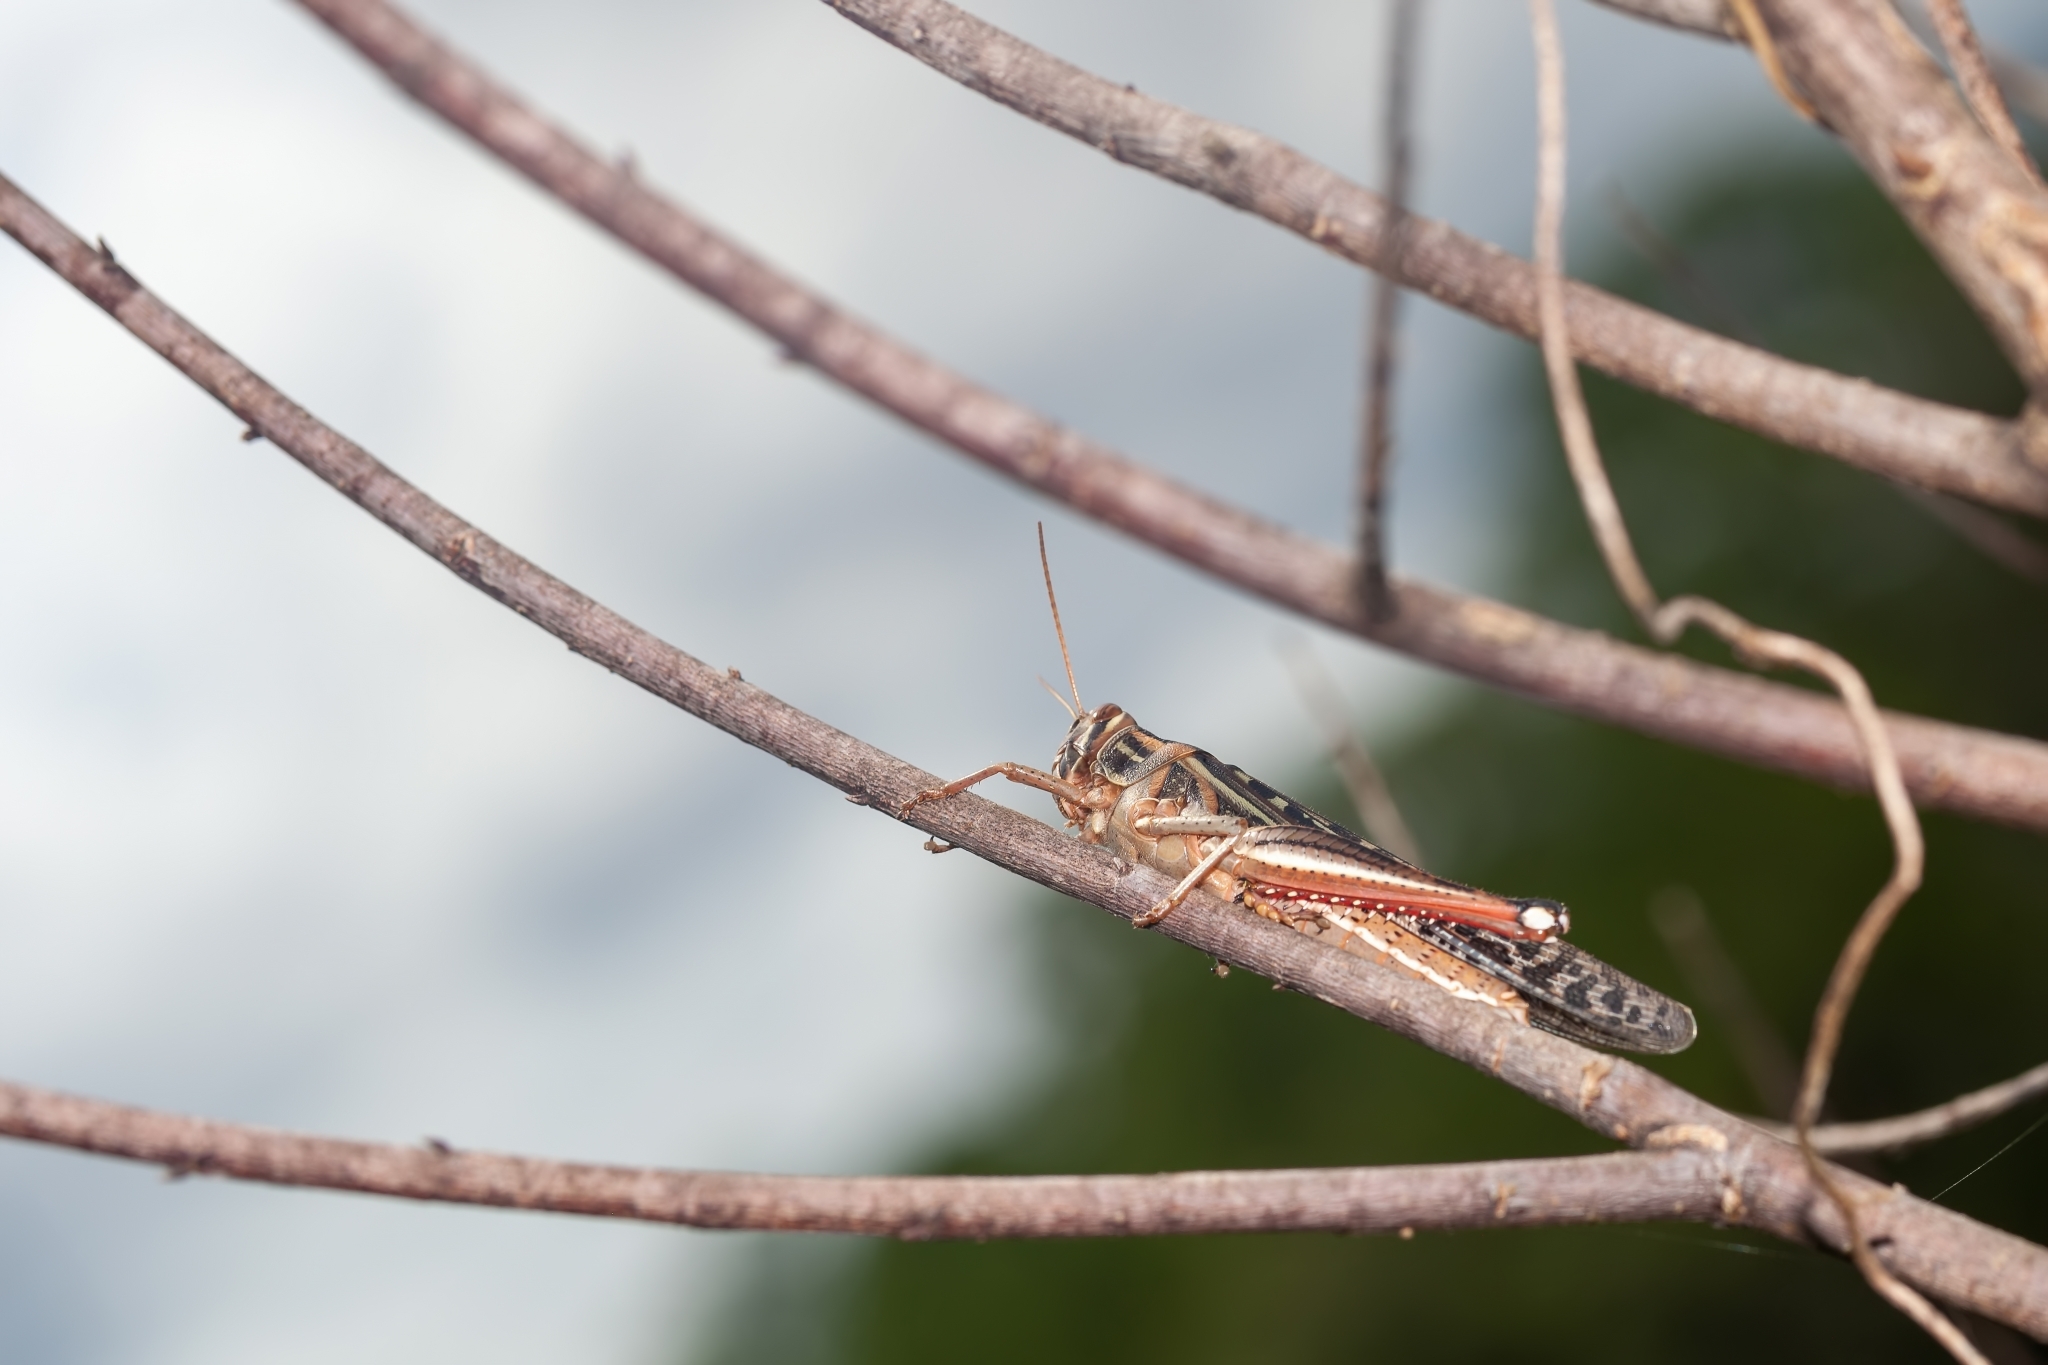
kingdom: Animalia
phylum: Arthropoda
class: Insecta
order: Orthoptera
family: Acrididae
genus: Schistocerca
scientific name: Schistocerca americana
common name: American bird locust
